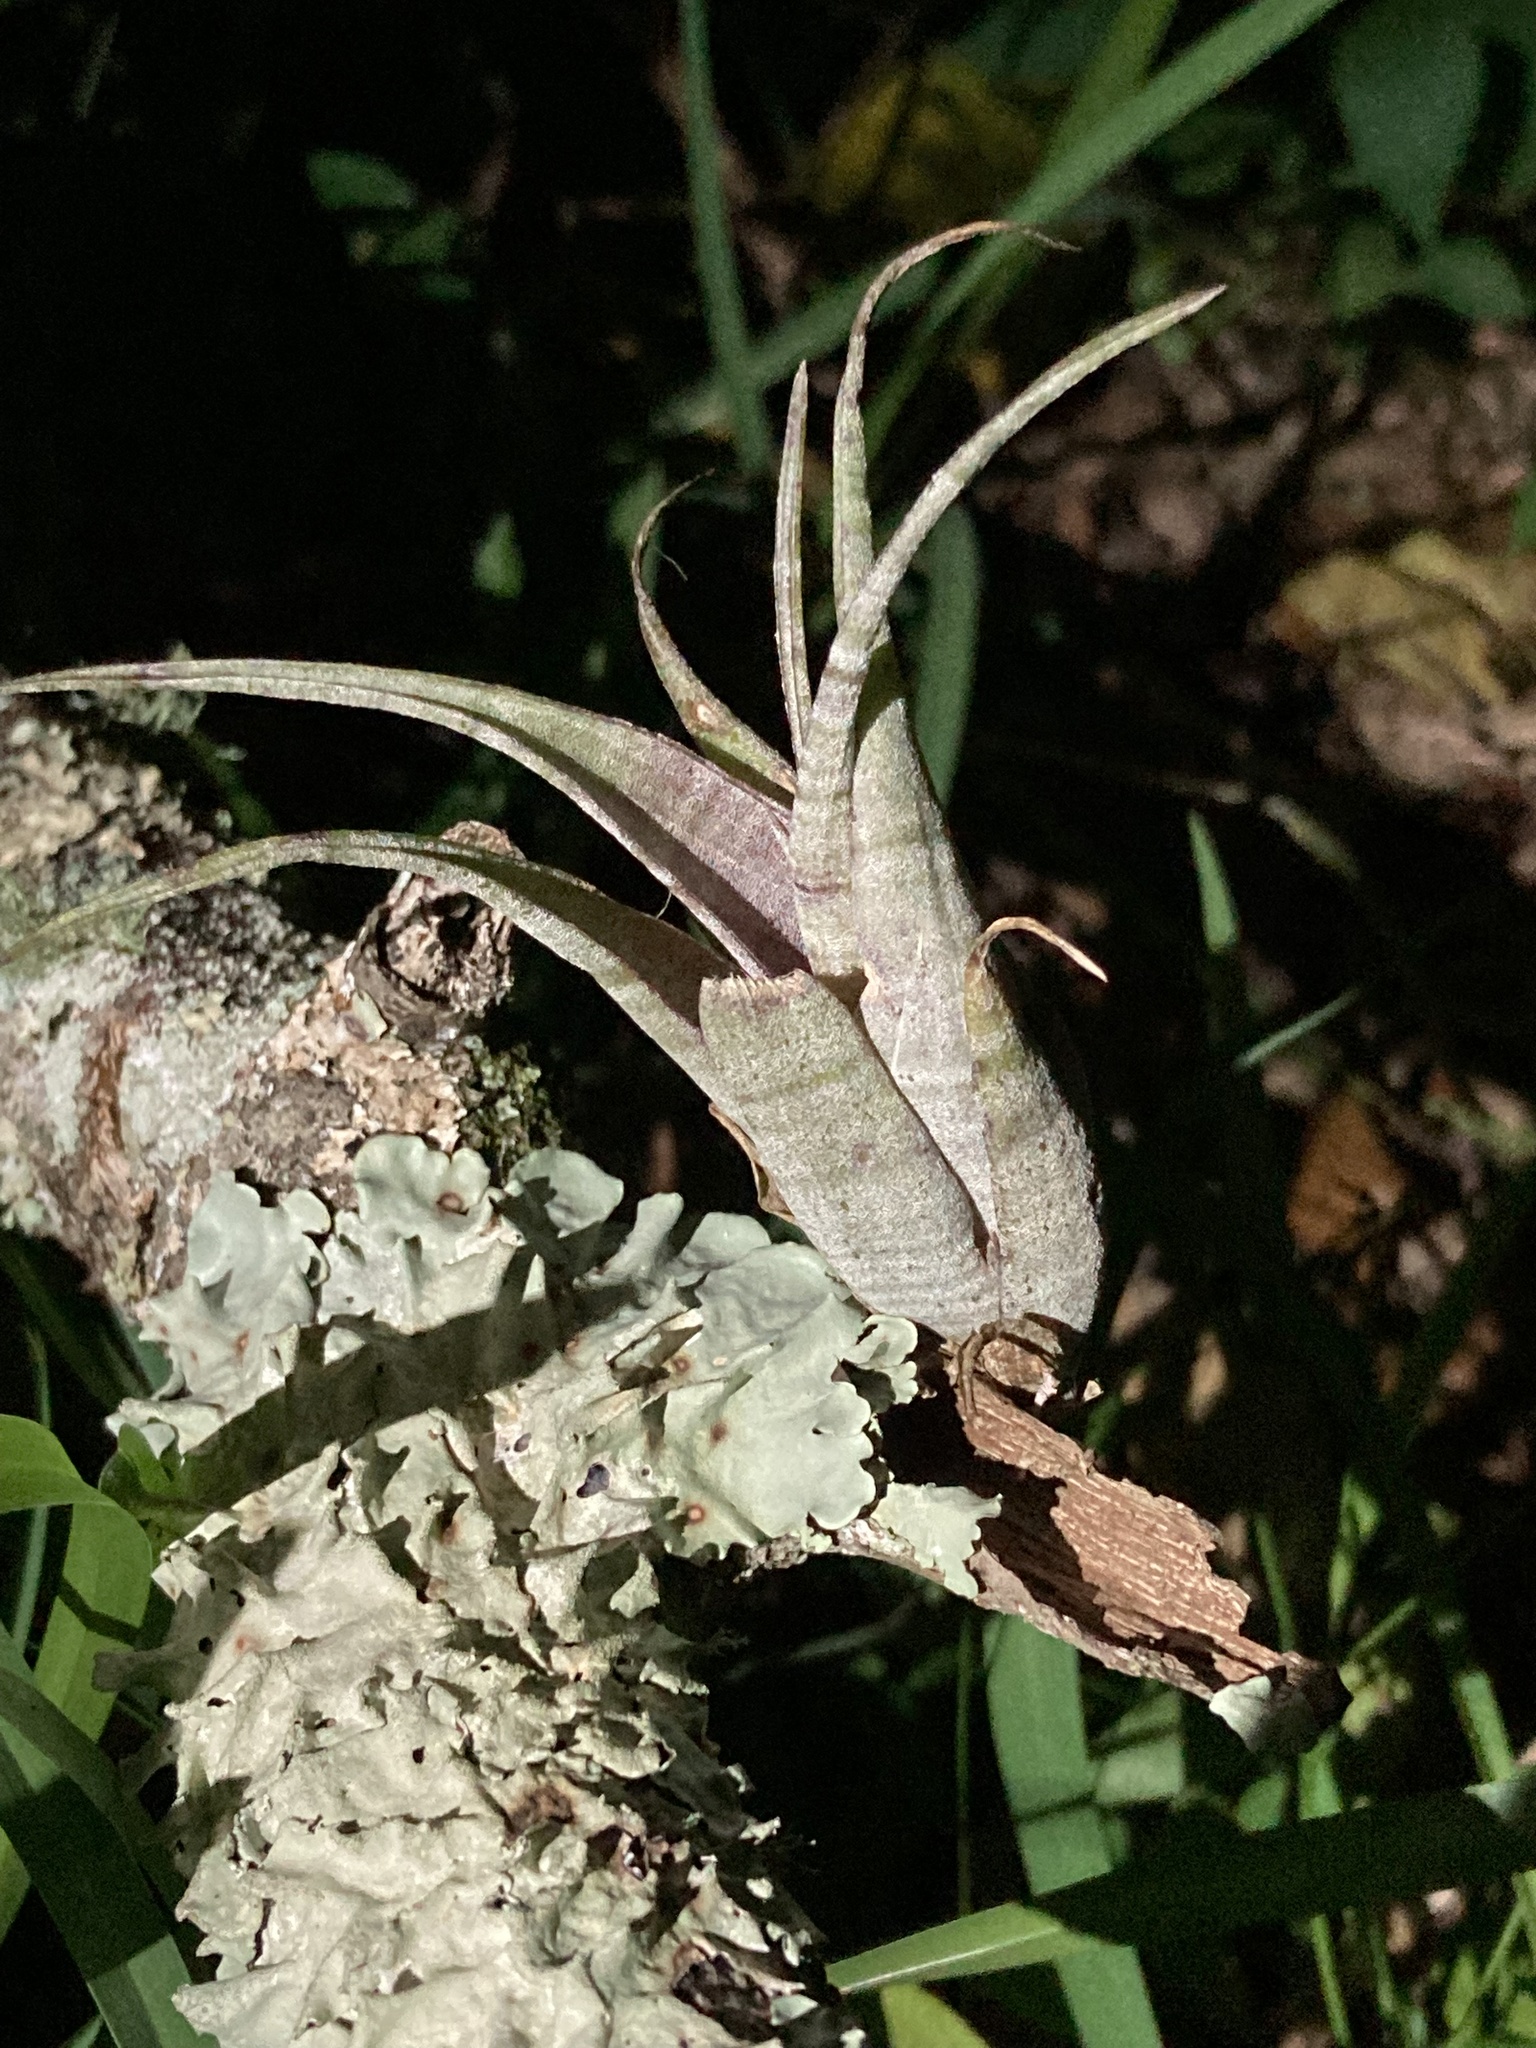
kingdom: Plantae
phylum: Tracheophyta
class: Liliopsida
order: Poales
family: Bromeliaceae
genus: Tillandsia
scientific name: Tillandsia flexuosa
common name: Banded airplant
